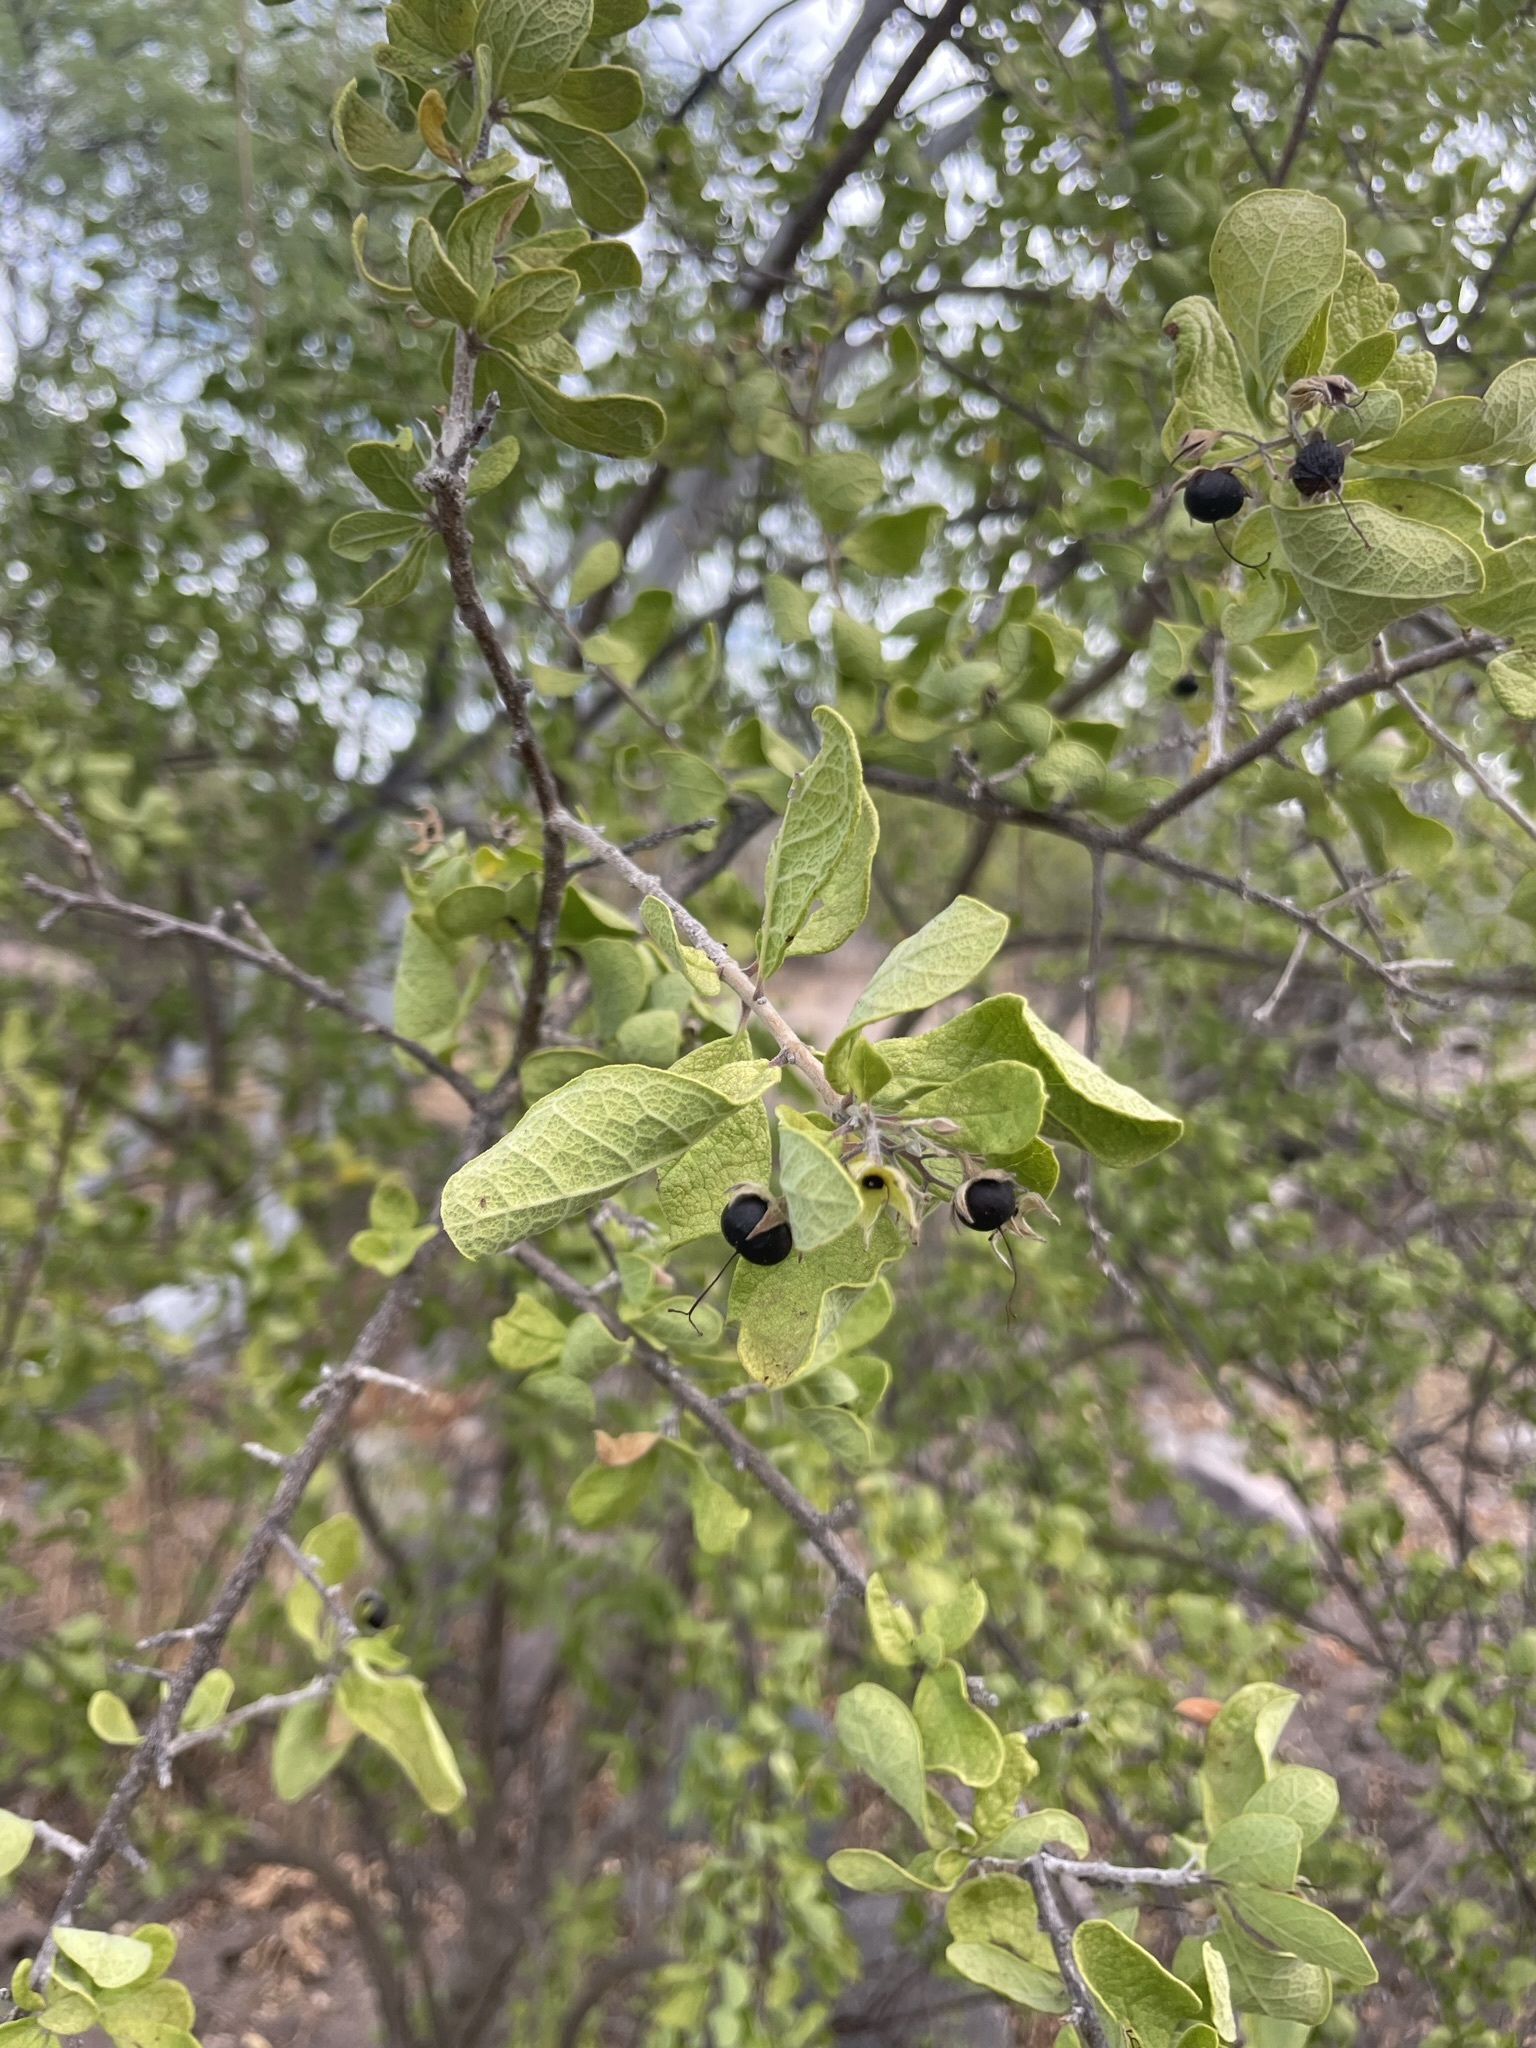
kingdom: Plantae
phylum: Tracheophyta
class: Magnoliopsida
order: Boraginales
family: Ehretiaceae
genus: Bourreria
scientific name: Bourreria sonorae
